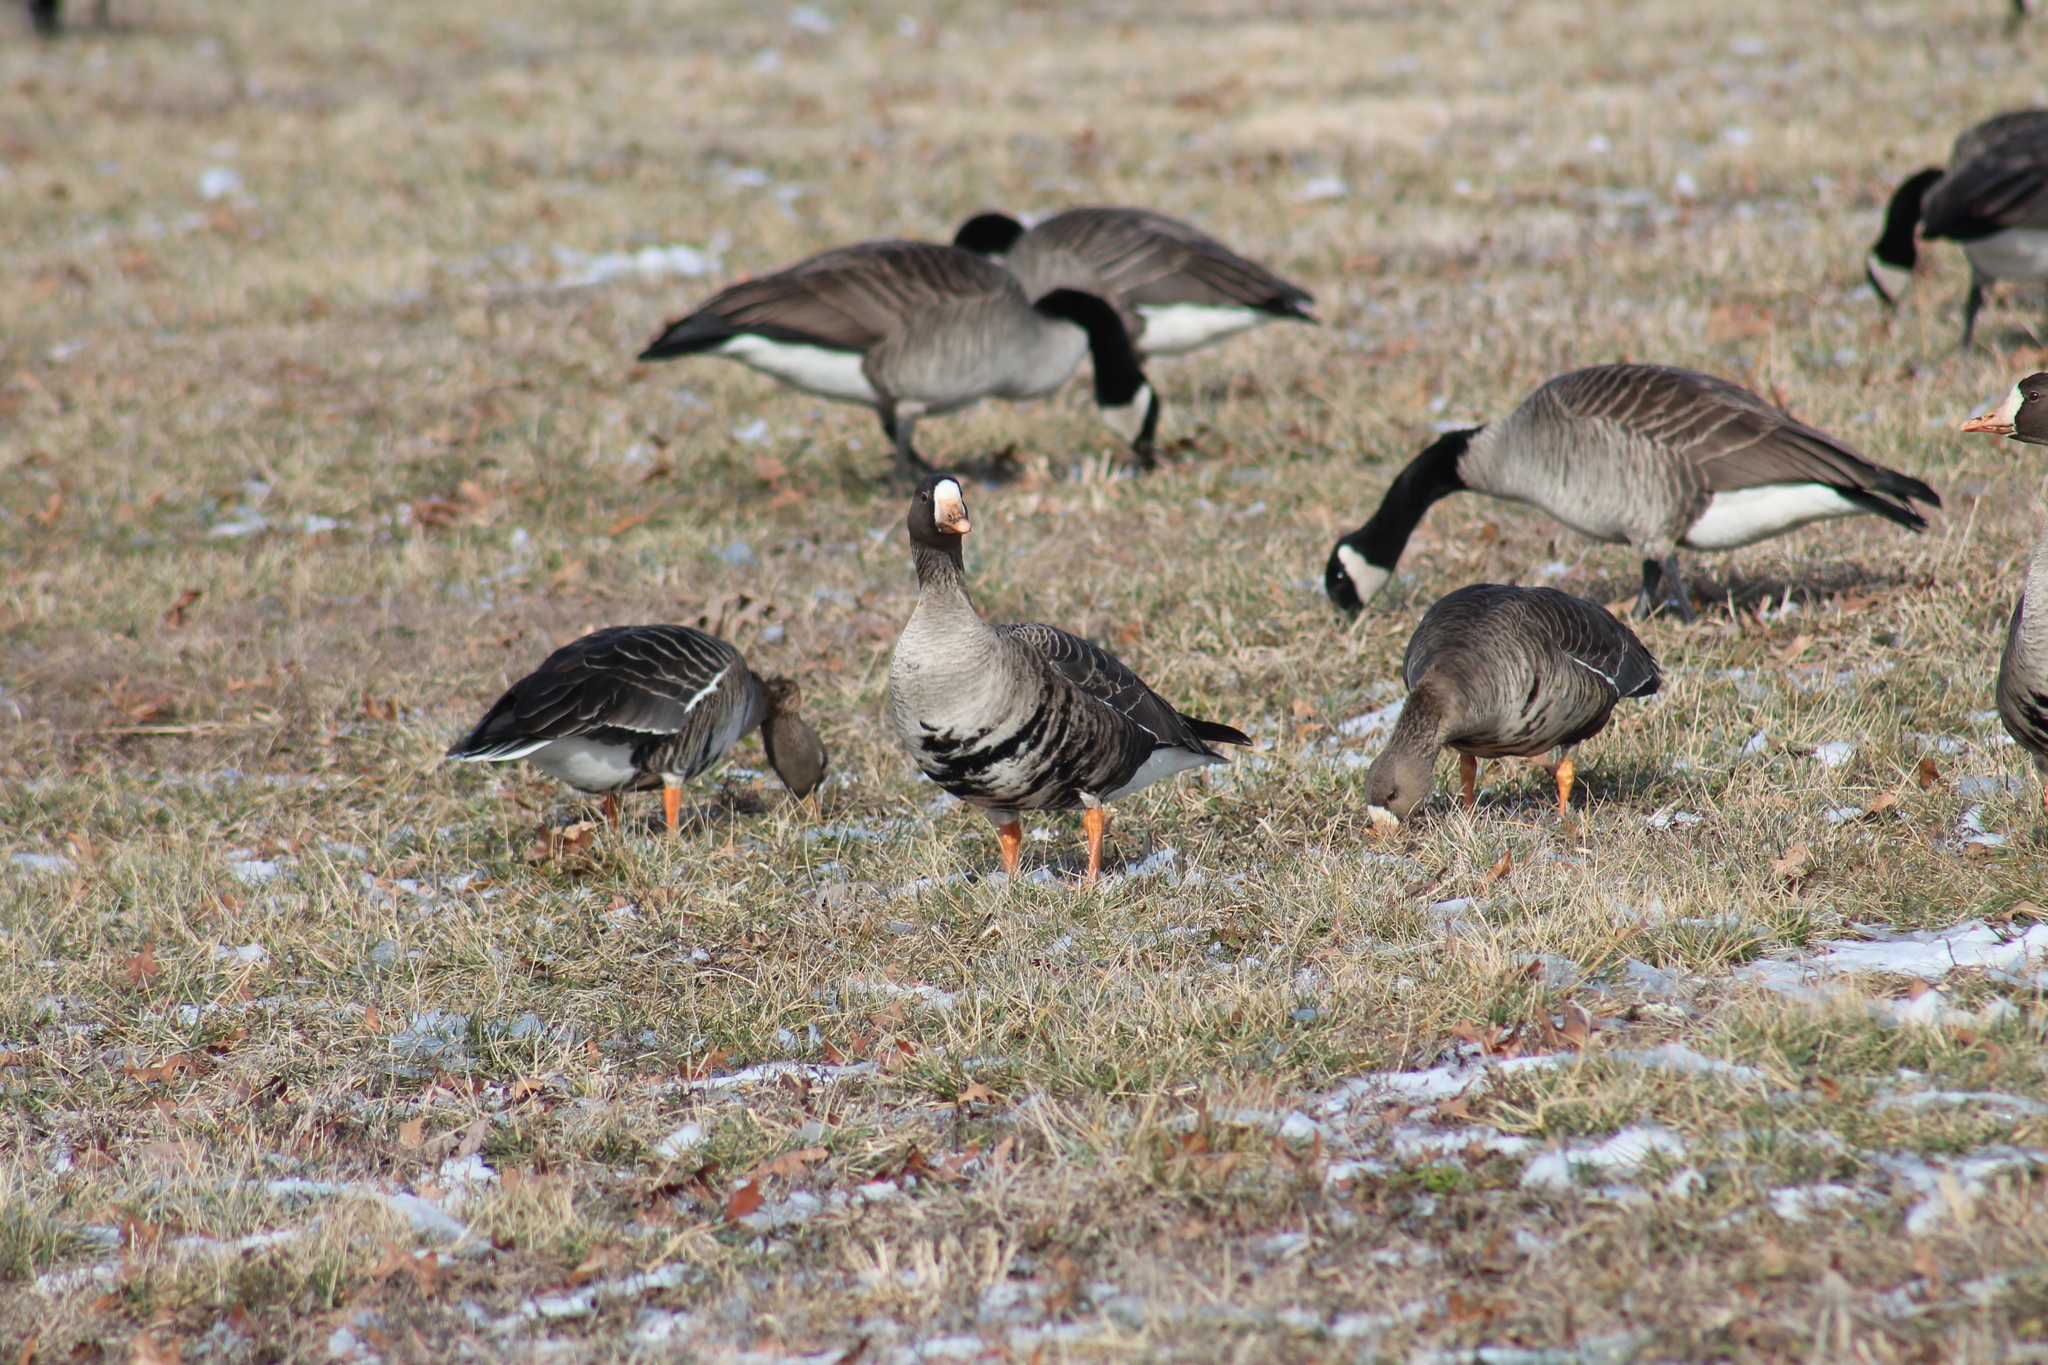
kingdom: Animalia
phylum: Chordata
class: Aves
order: Anseriformes
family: Anatidae
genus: Anser
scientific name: Anser albifrons
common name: Greater white-fronted goose
